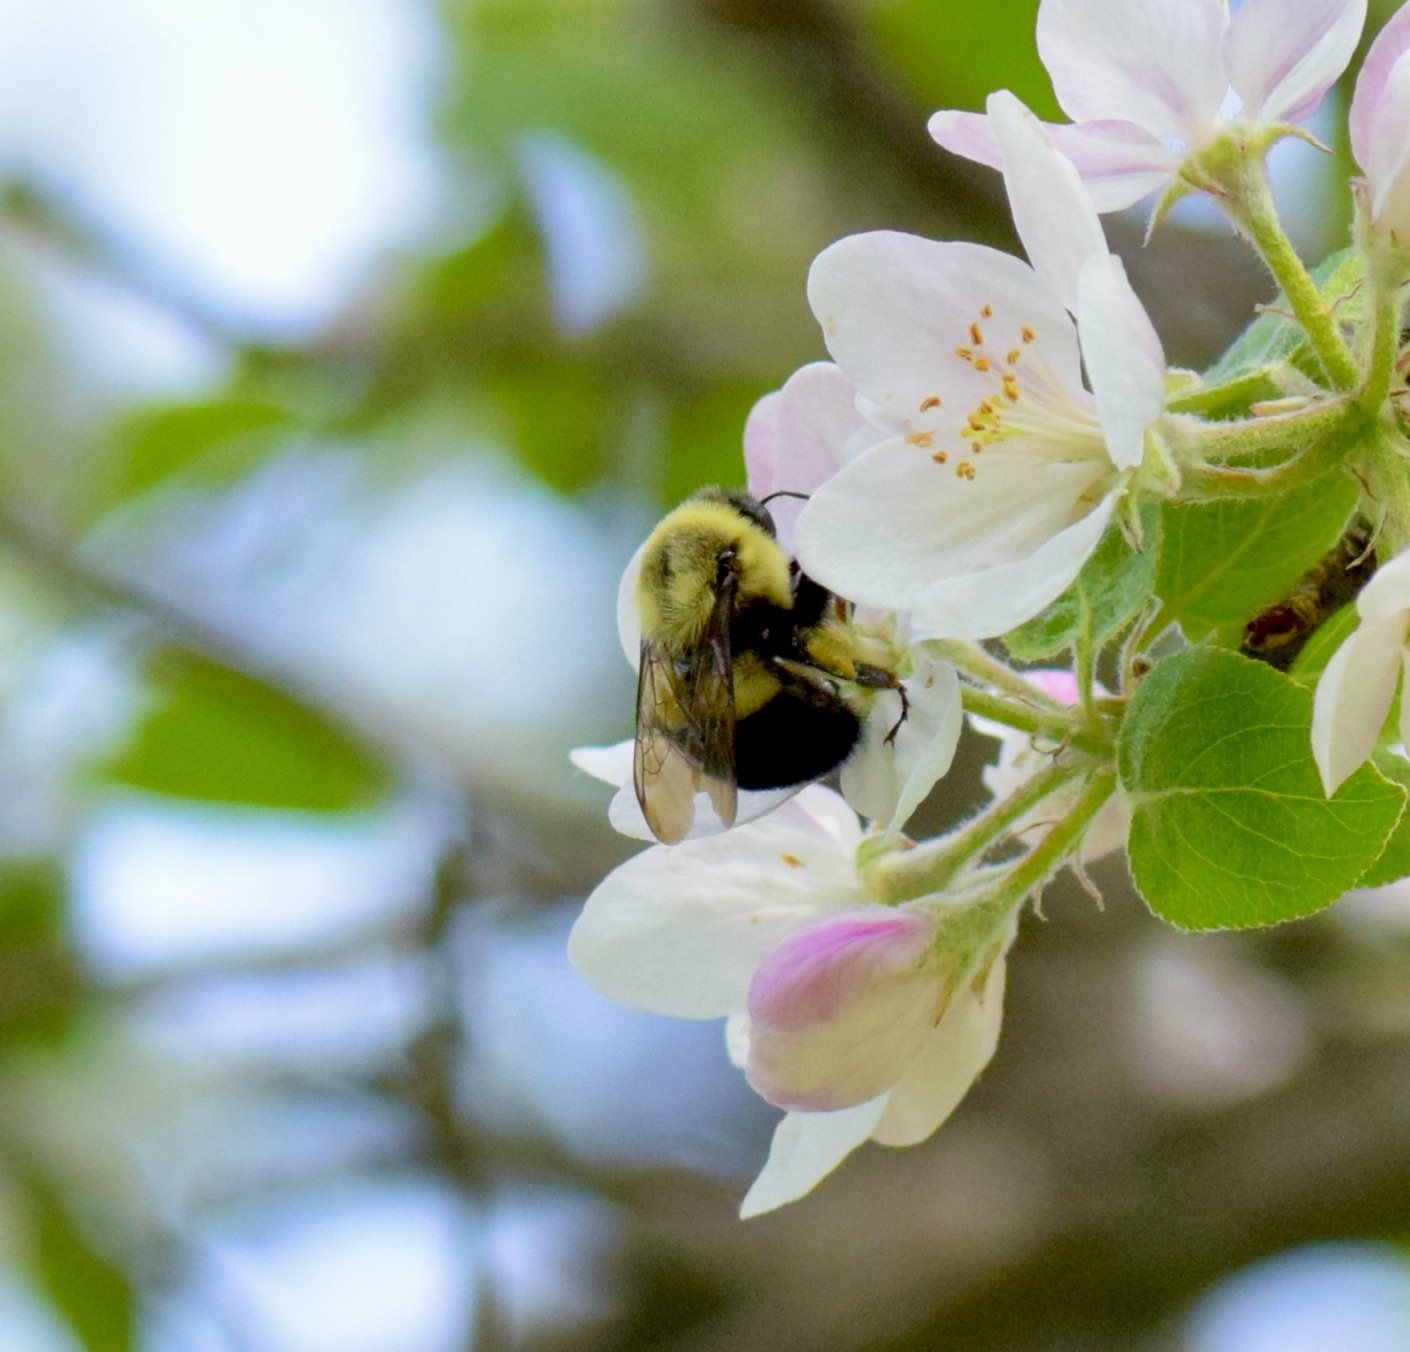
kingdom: Animalia
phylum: Arthropoda
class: Insecta
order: Hymenoptera
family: Apidae
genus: Bombus
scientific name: Bombus impatiens
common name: Common eastern bumble bee
